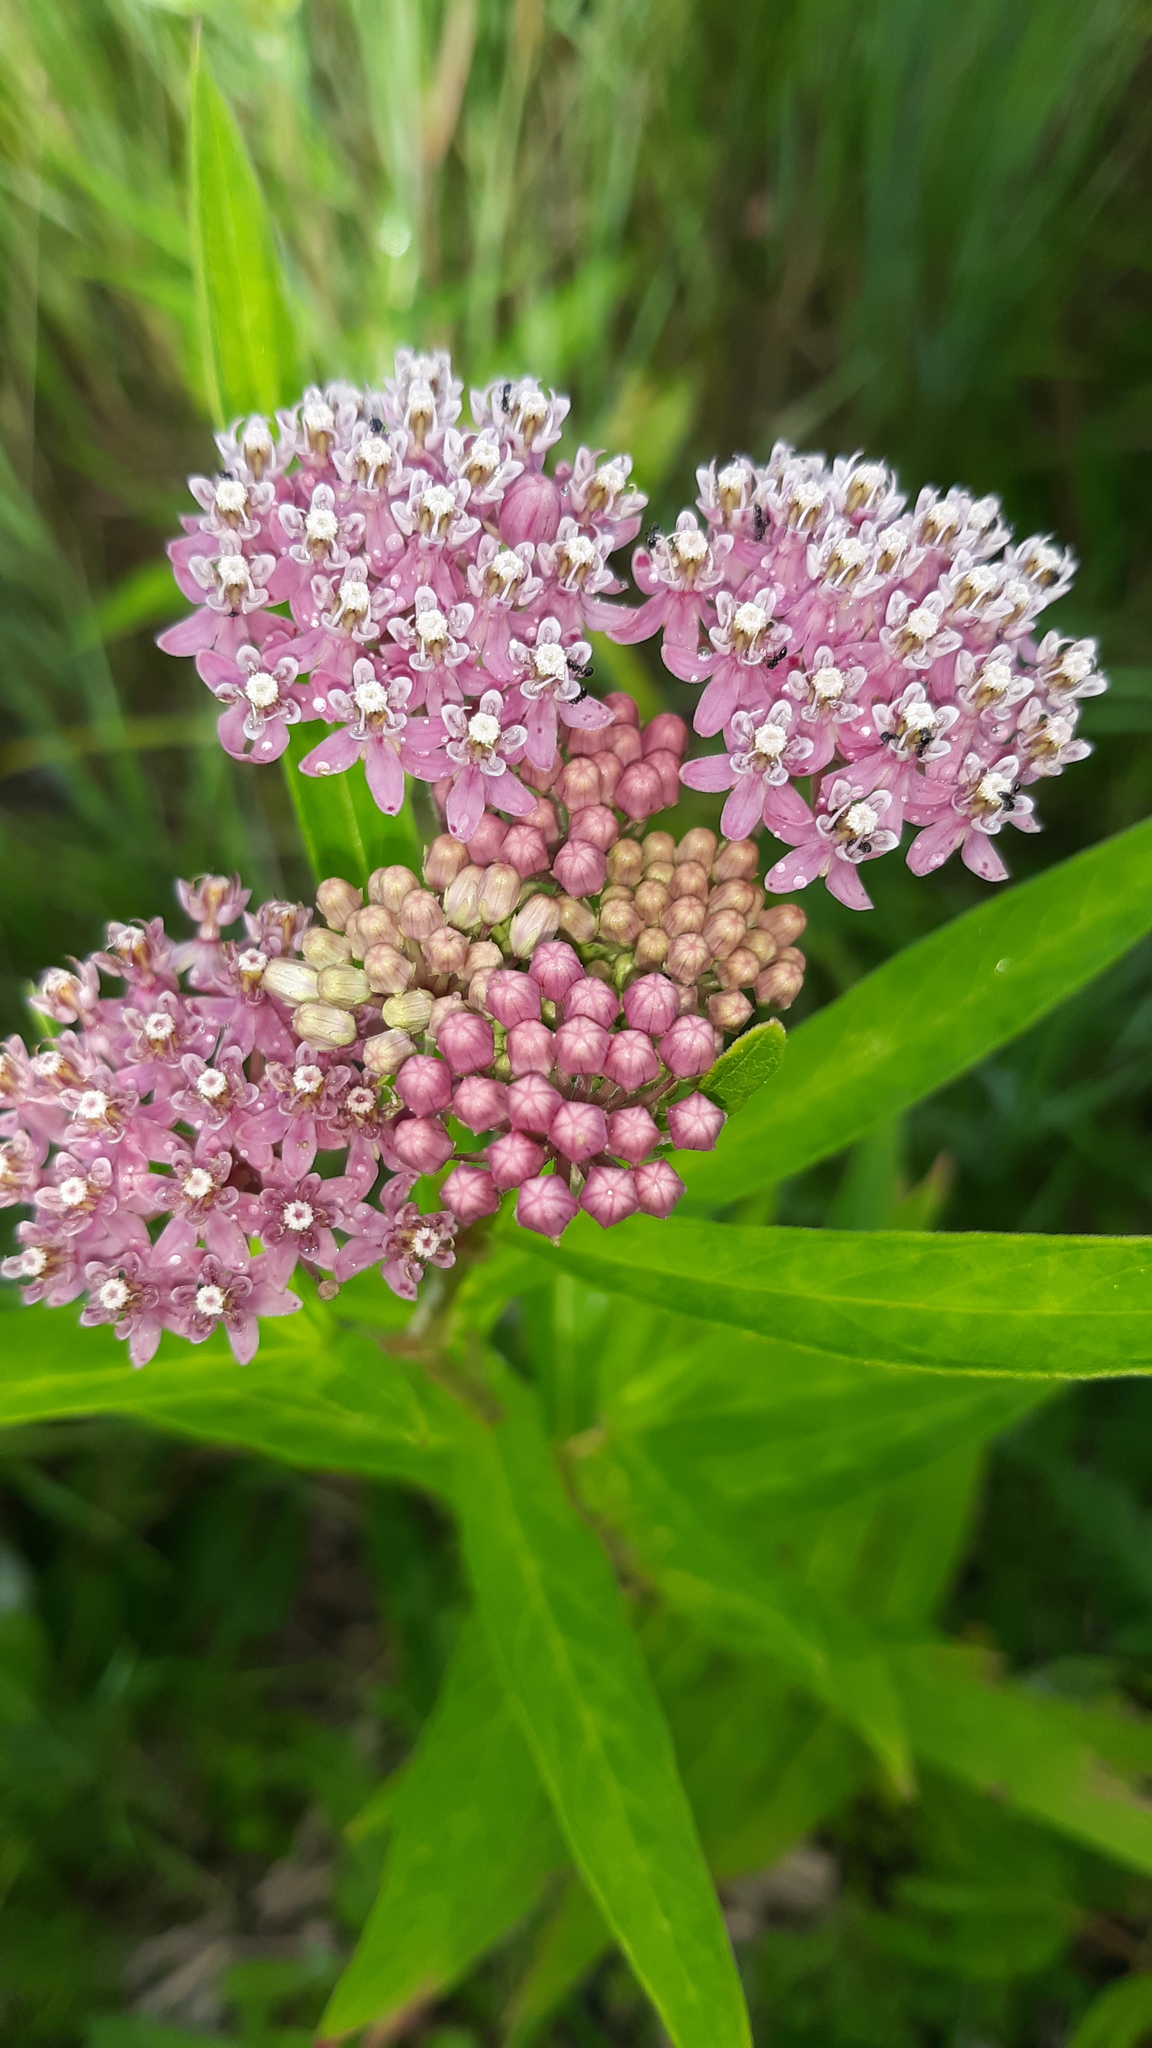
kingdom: Plantae
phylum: Tracheophyta
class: Magnoliopsida
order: Gentianales
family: Apocynaceae
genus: Asclepias
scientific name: Asclepias incarnata
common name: Swamp milkweed
